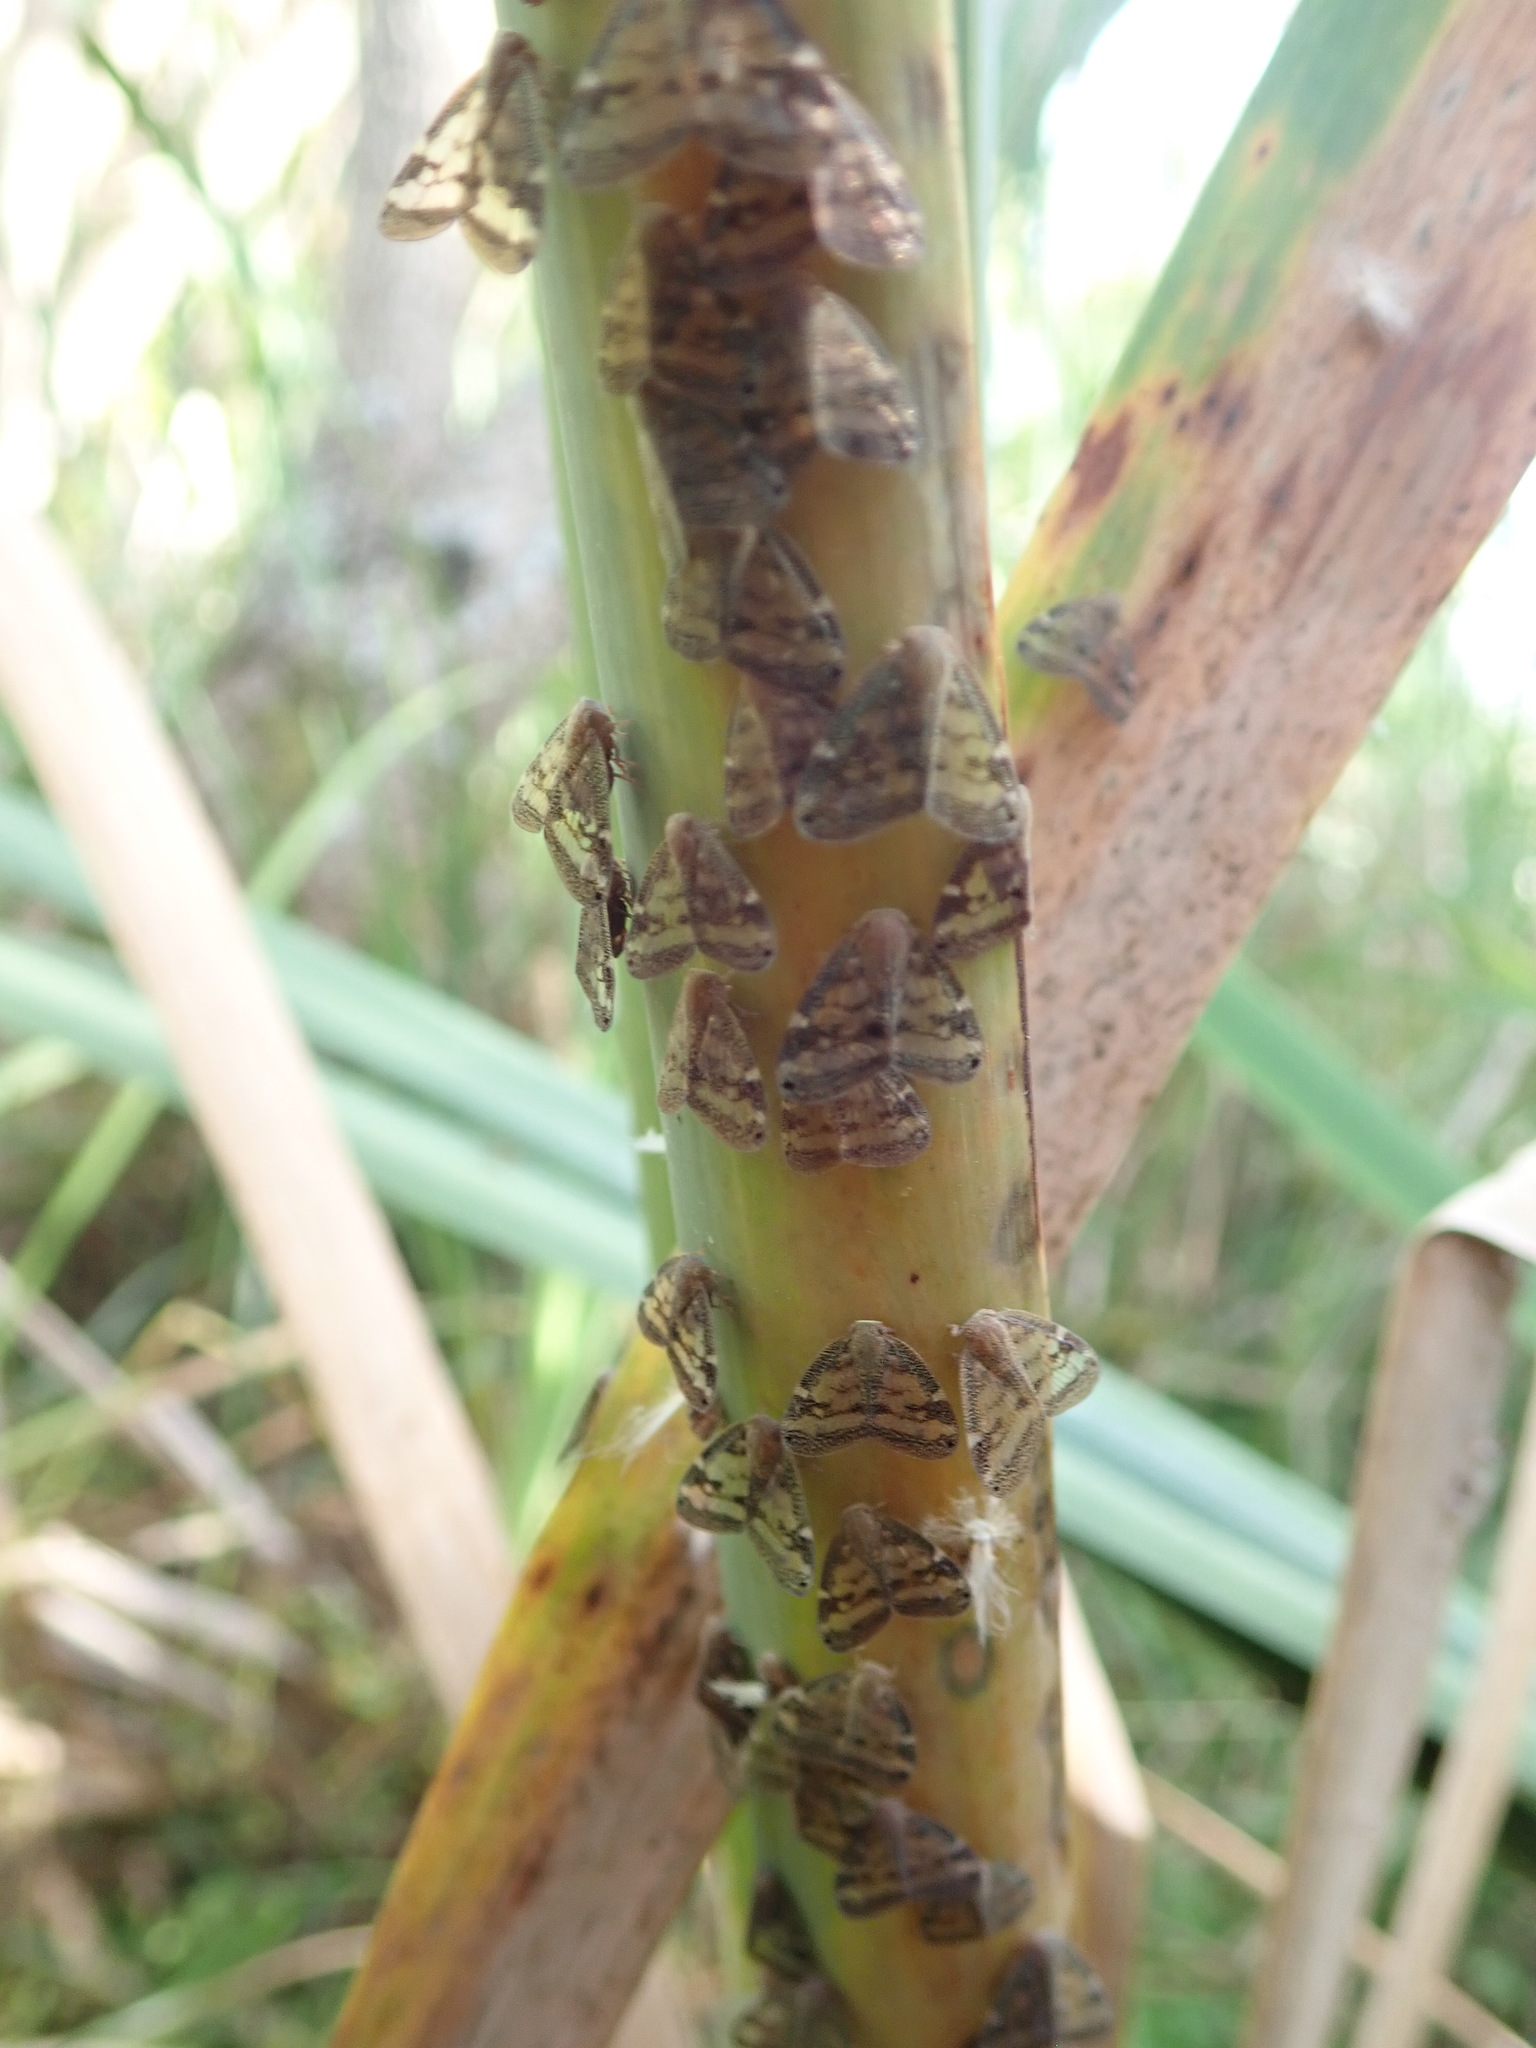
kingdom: Animalia
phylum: Arthropoda
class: Insecta
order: Hemiptera
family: Ricaniidae
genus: Scolypopa
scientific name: Scolypopa australis
